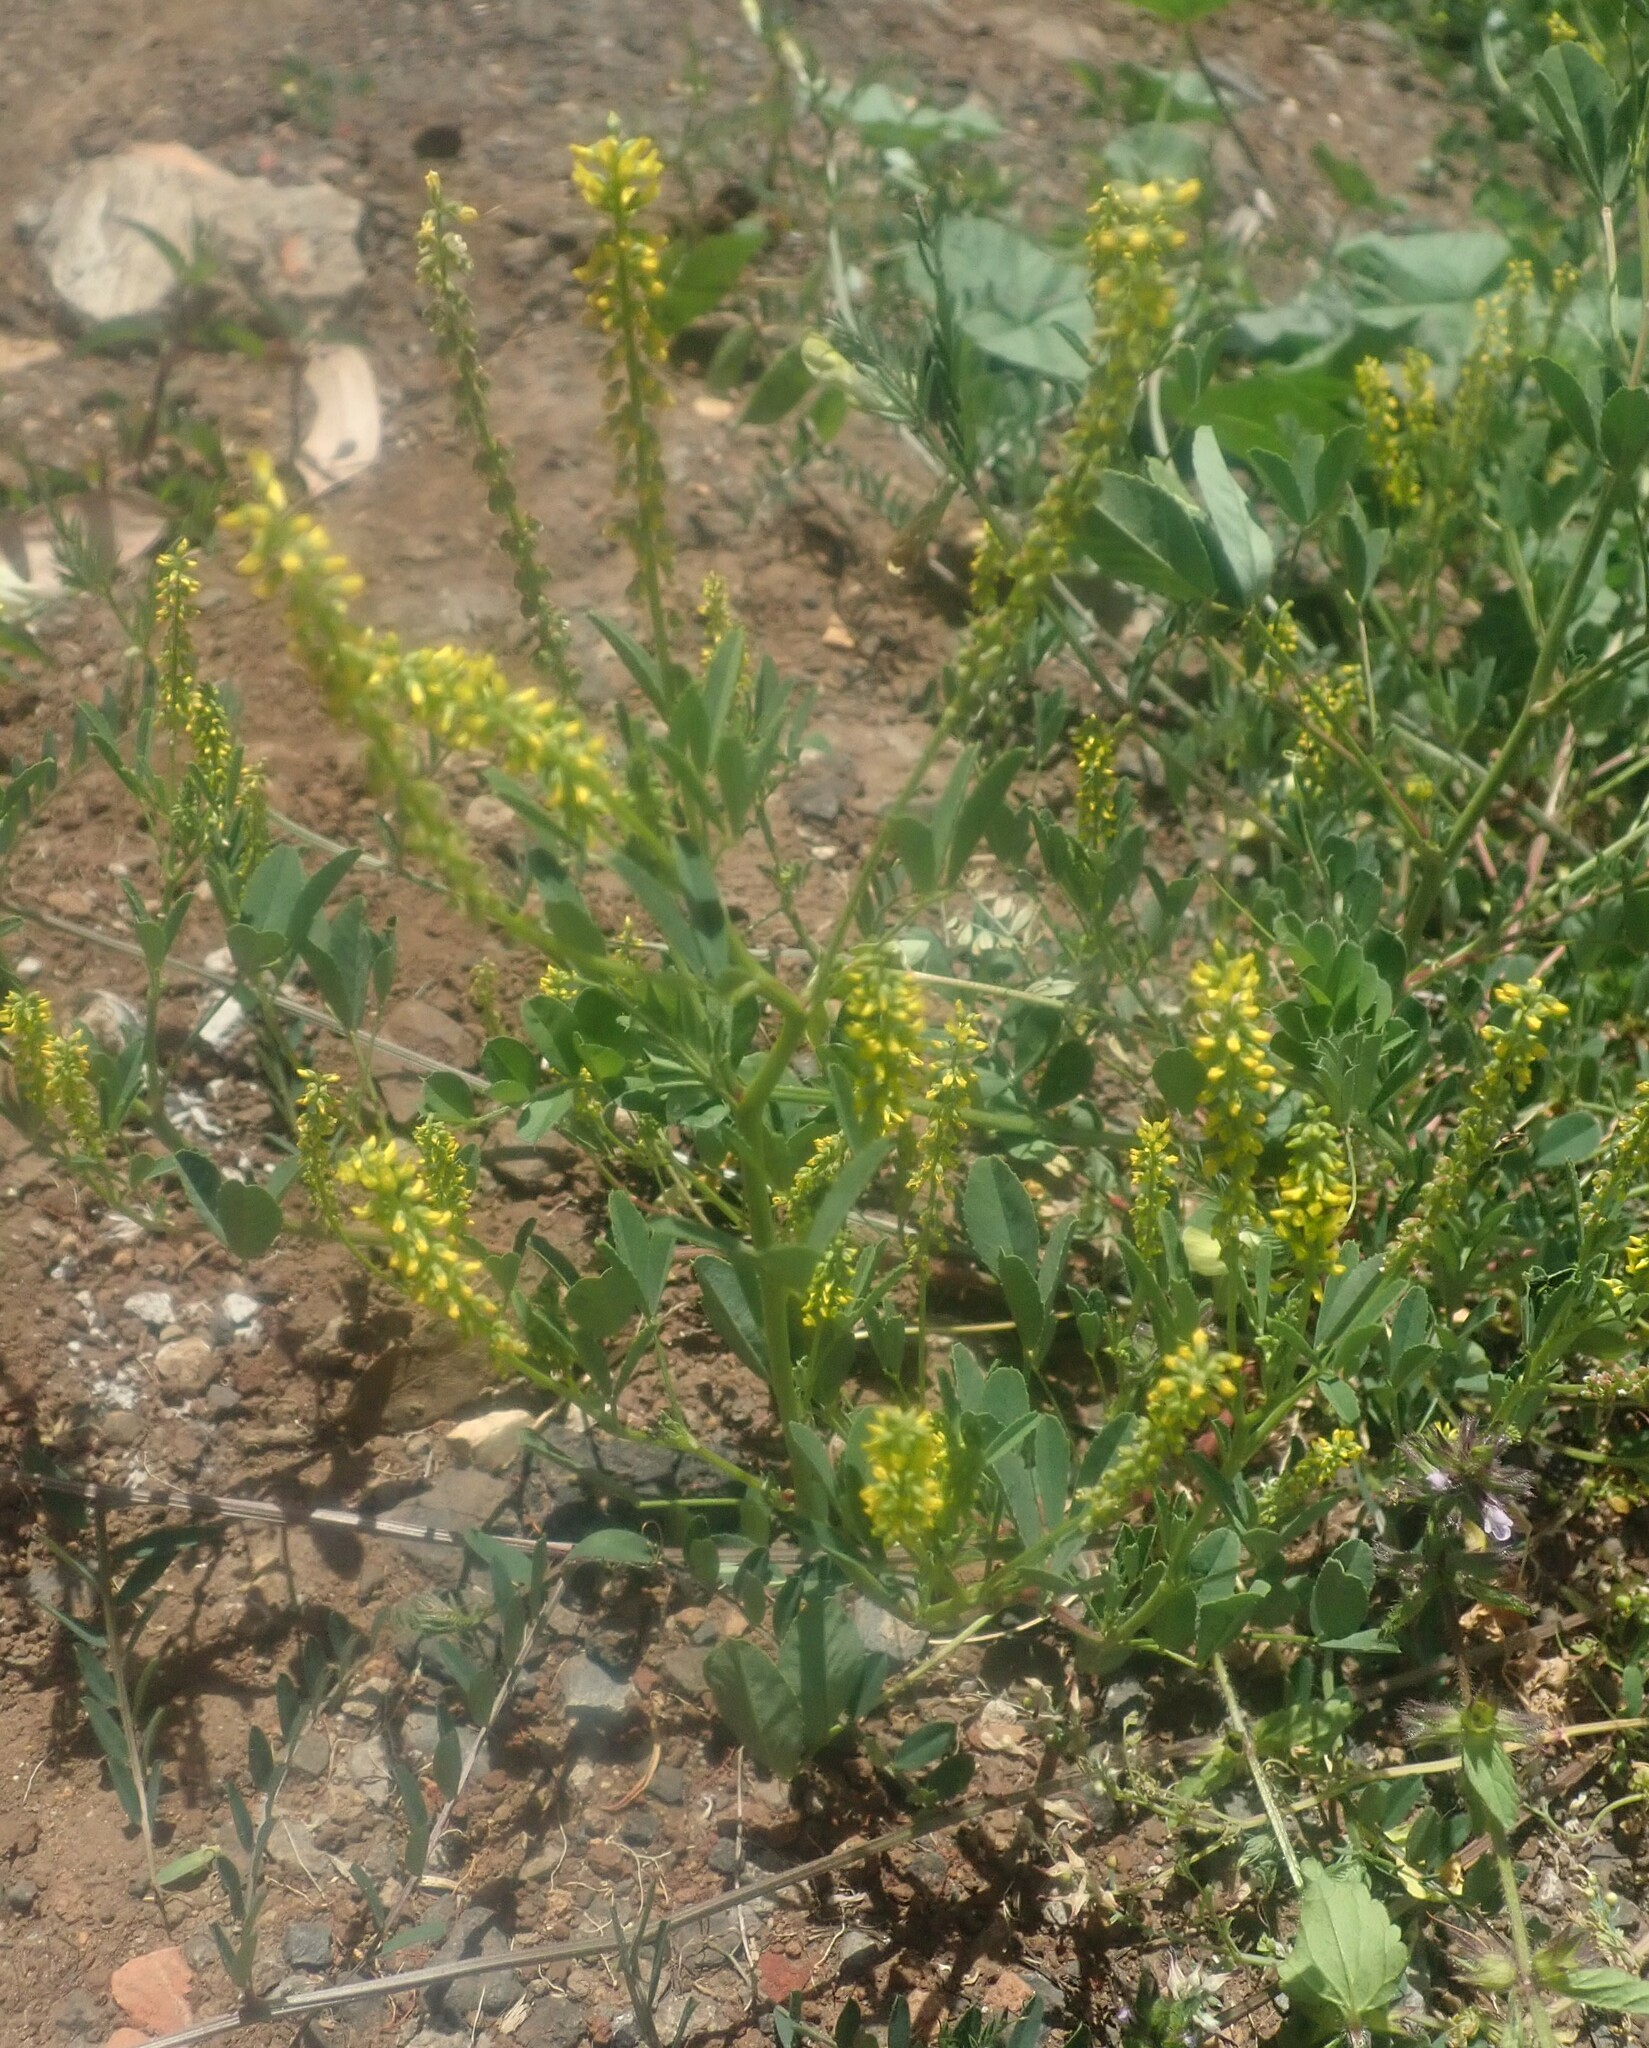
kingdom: Plantae
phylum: Tracheophyta
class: Magnoliopsida
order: Fabales
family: Fabaceae
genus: Melilotus
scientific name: Melilotus indicus
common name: Small melilot
